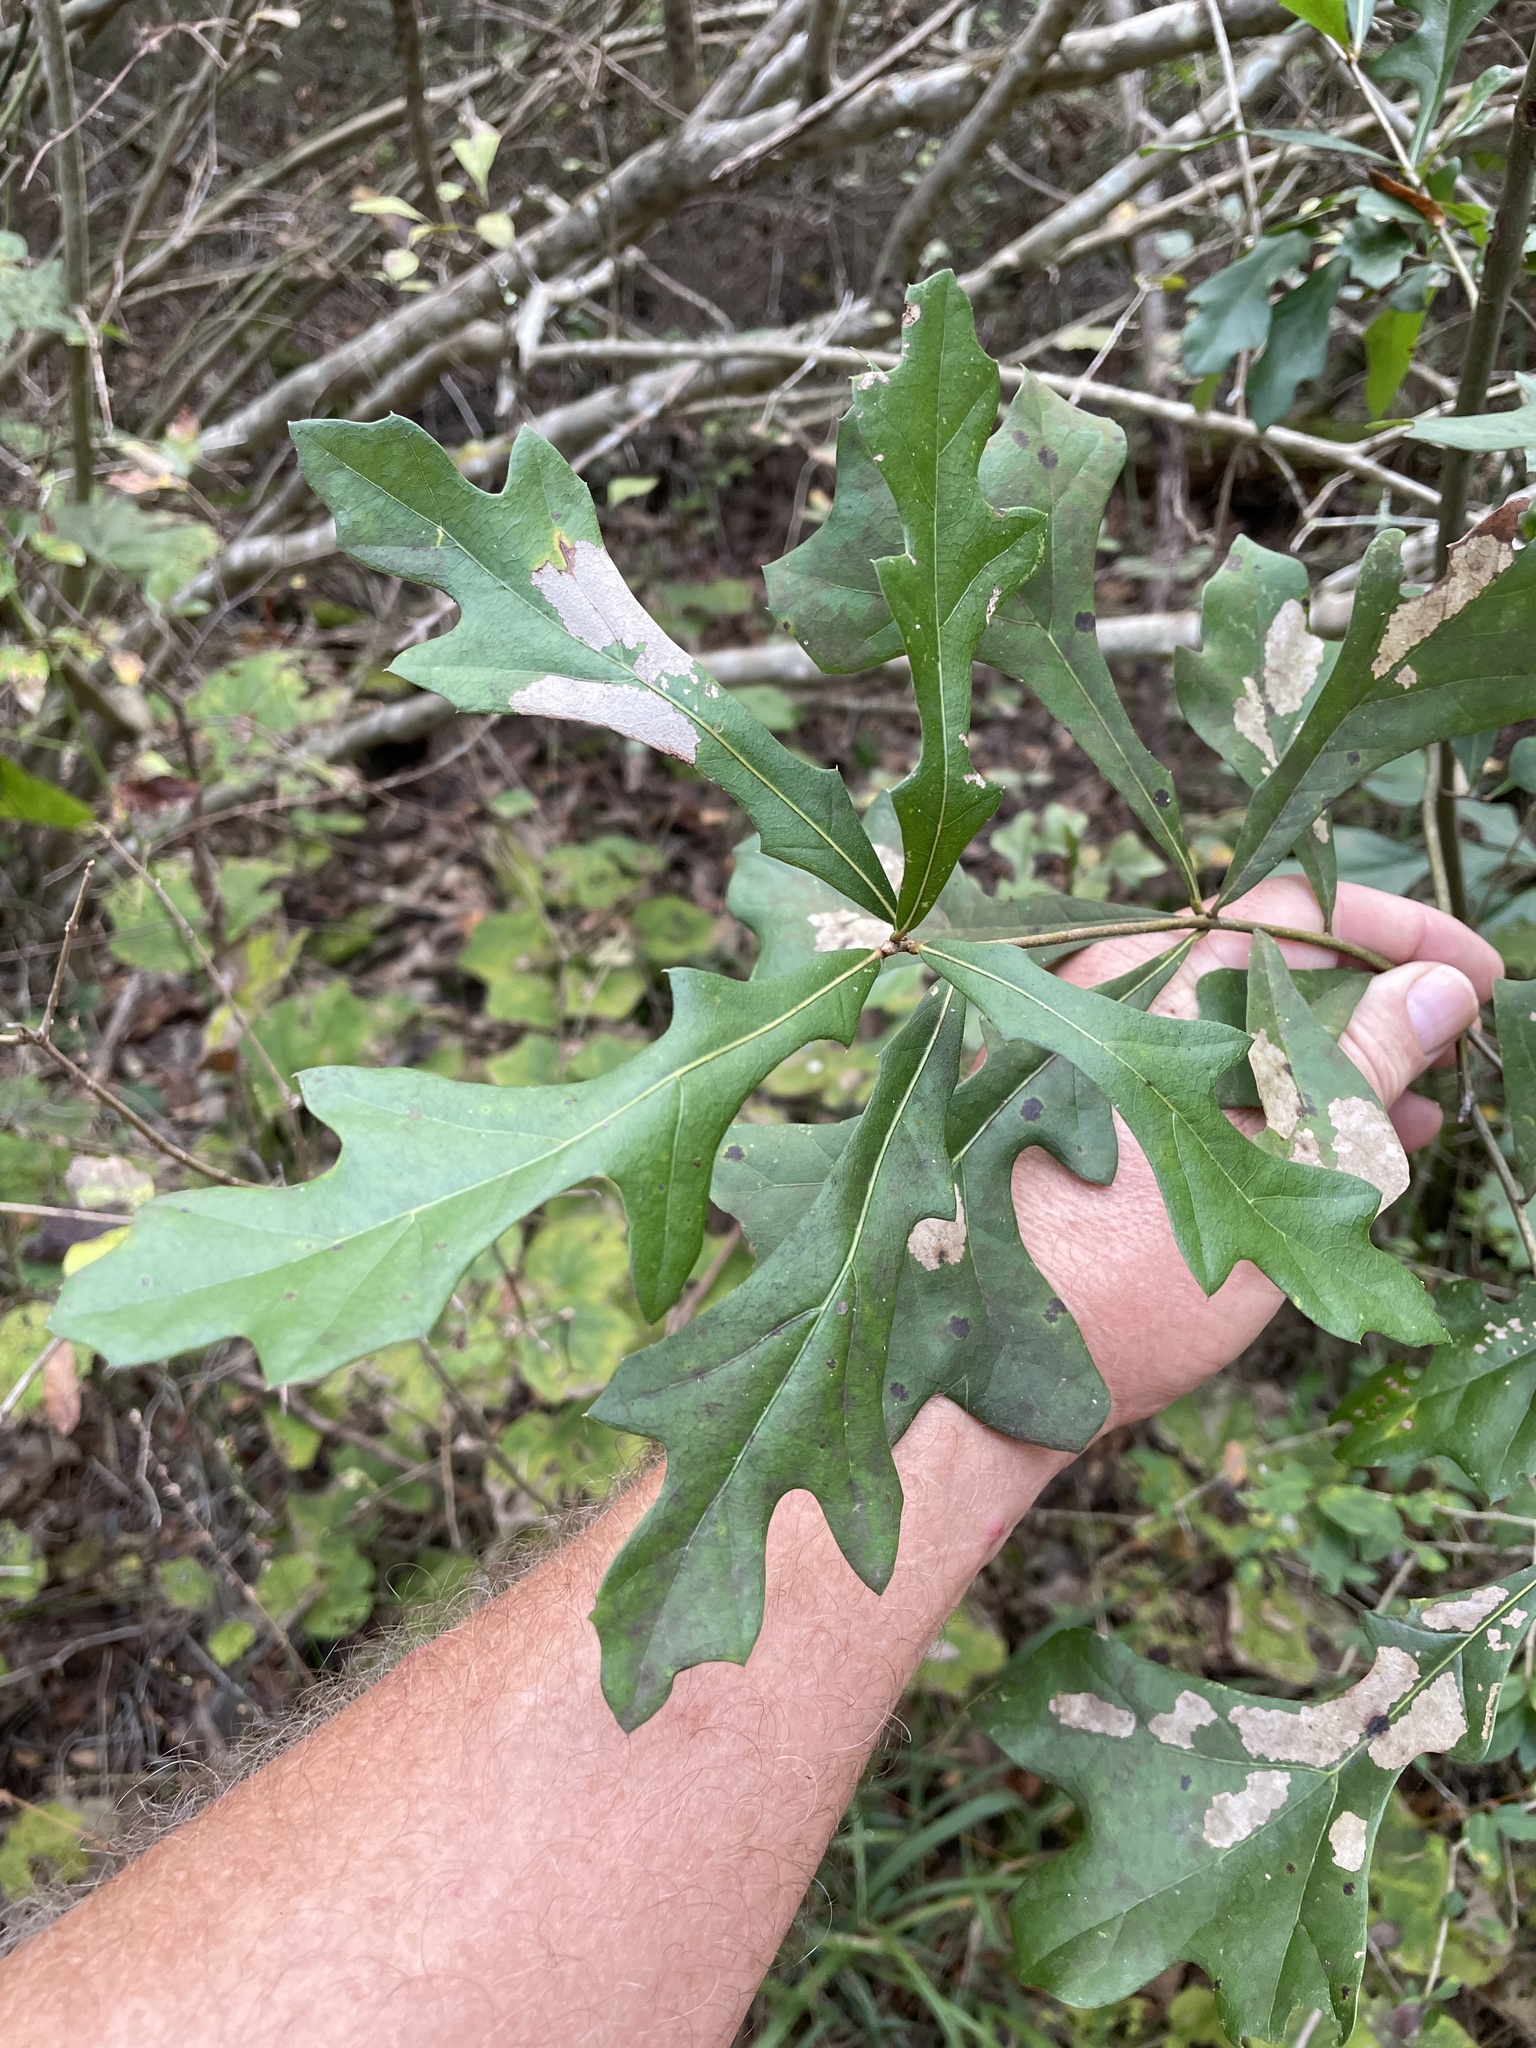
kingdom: Plantae
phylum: Tracheophyta
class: Magnoliopsida
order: Fagales
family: Fagaceae
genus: Quercus
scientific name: Quercus nigra
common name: Water oak
